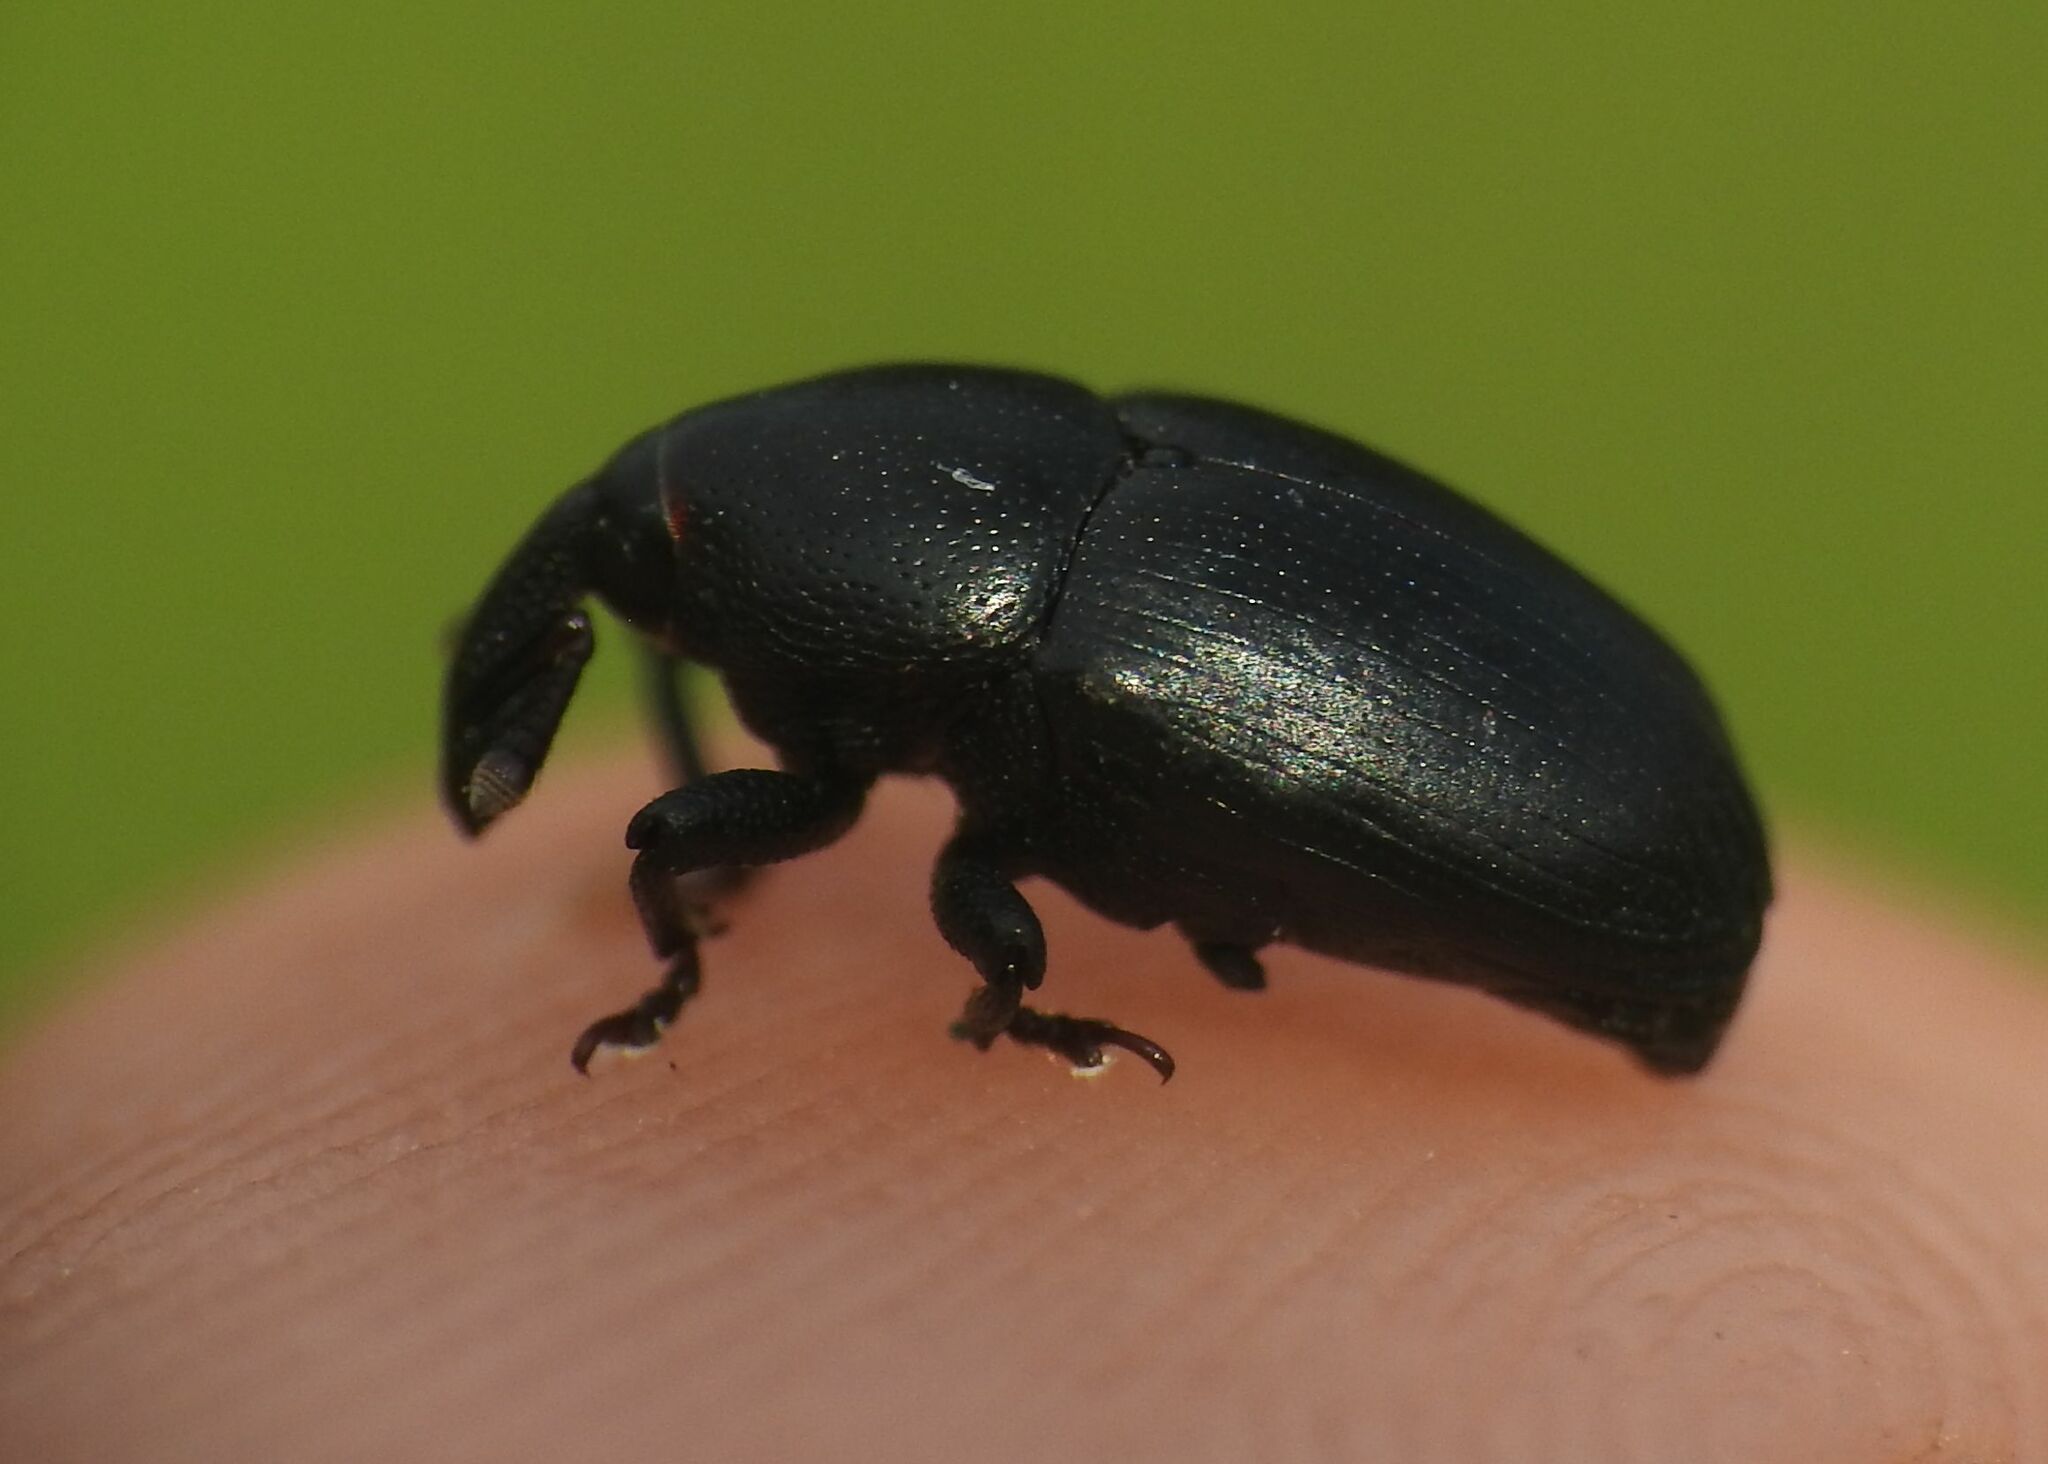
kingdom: Animalia
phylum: Arthropoda
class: Insecta
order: Coleoptera
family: Curculionidae
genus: Malvaevora
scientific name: Malvaevora timida
